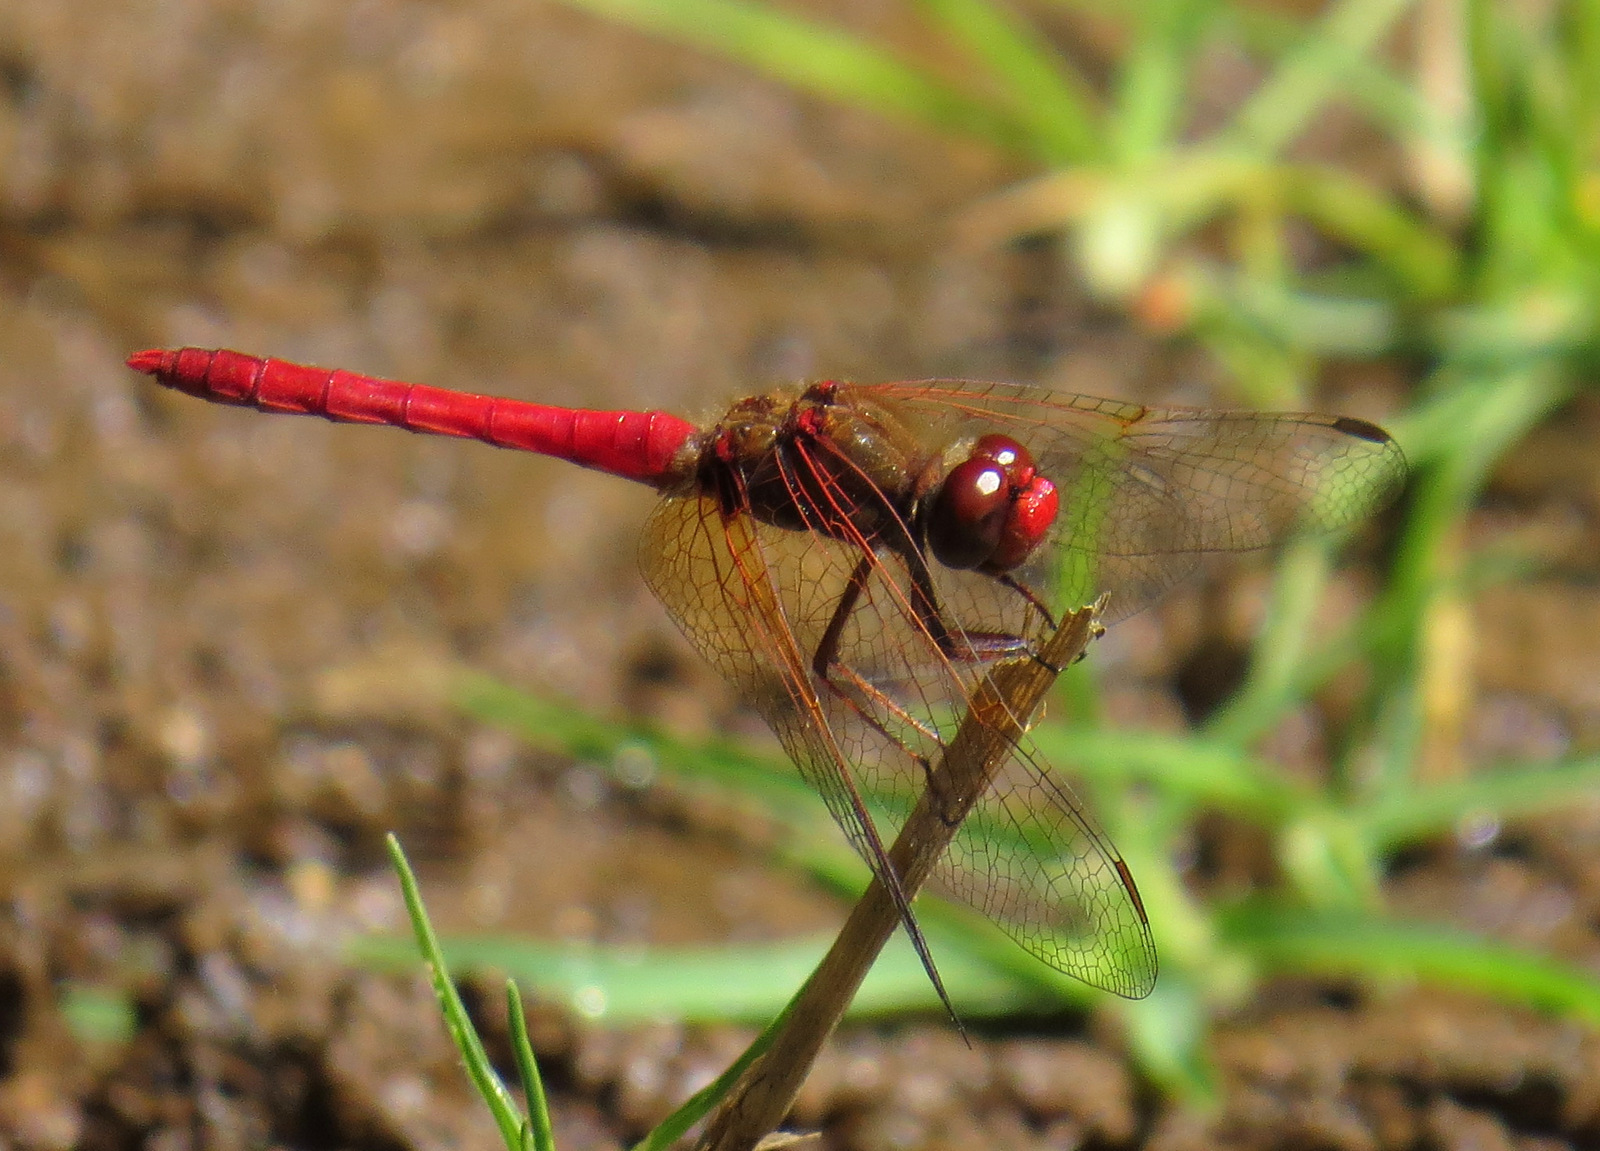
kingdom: Animalia
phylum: Arthropoda
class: Insecta
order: Odonata
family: Libellulidae
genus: Sympetrum
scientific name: Sympetrum illotum
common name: Cardinal meadowhawk
